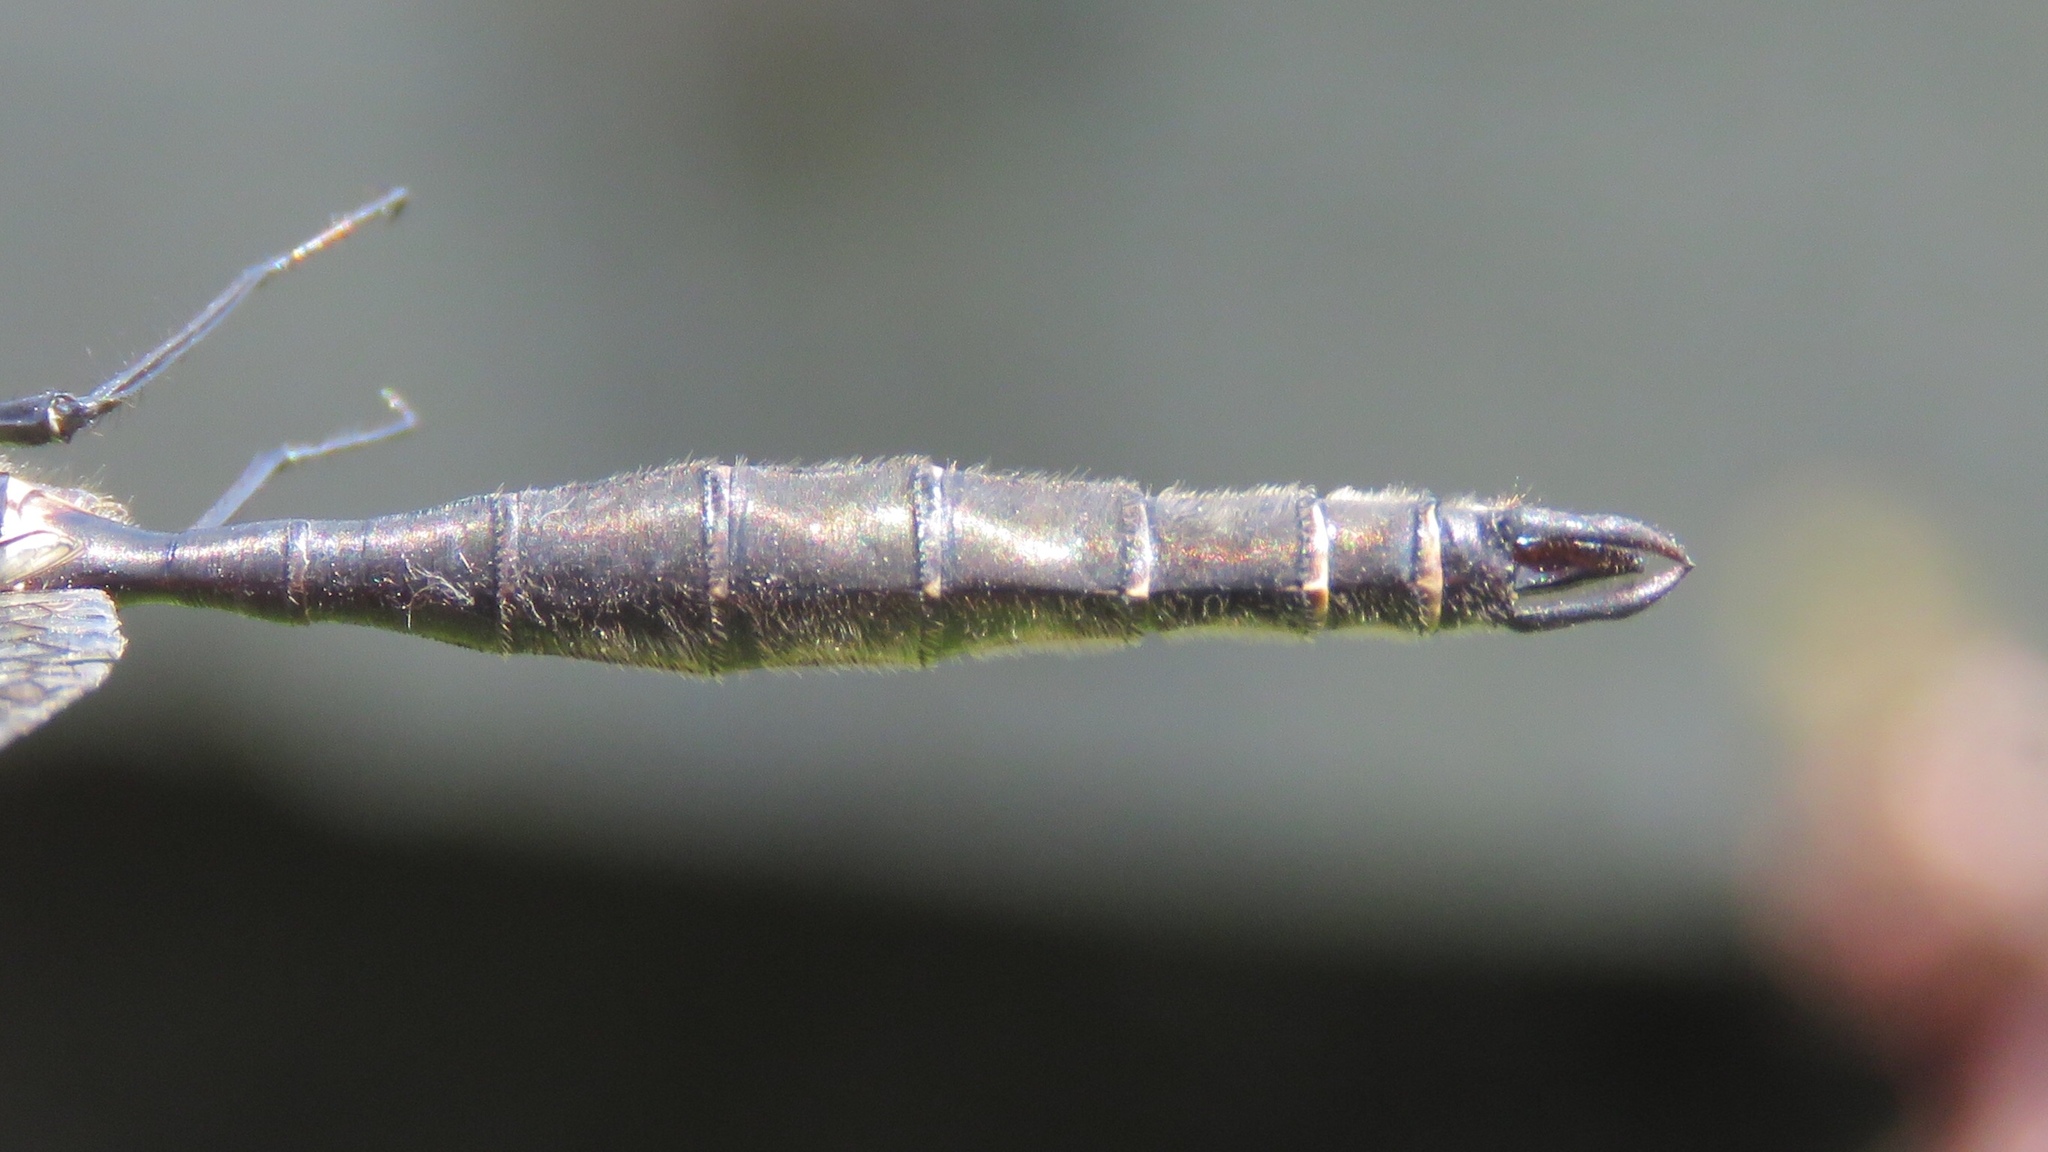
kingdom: Animalia
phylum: Arthropoda
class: Insecta
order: Odonata
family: Corduliidae
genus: Somatochlora
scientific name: Somatochlora minor
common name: Ocellated emerald
